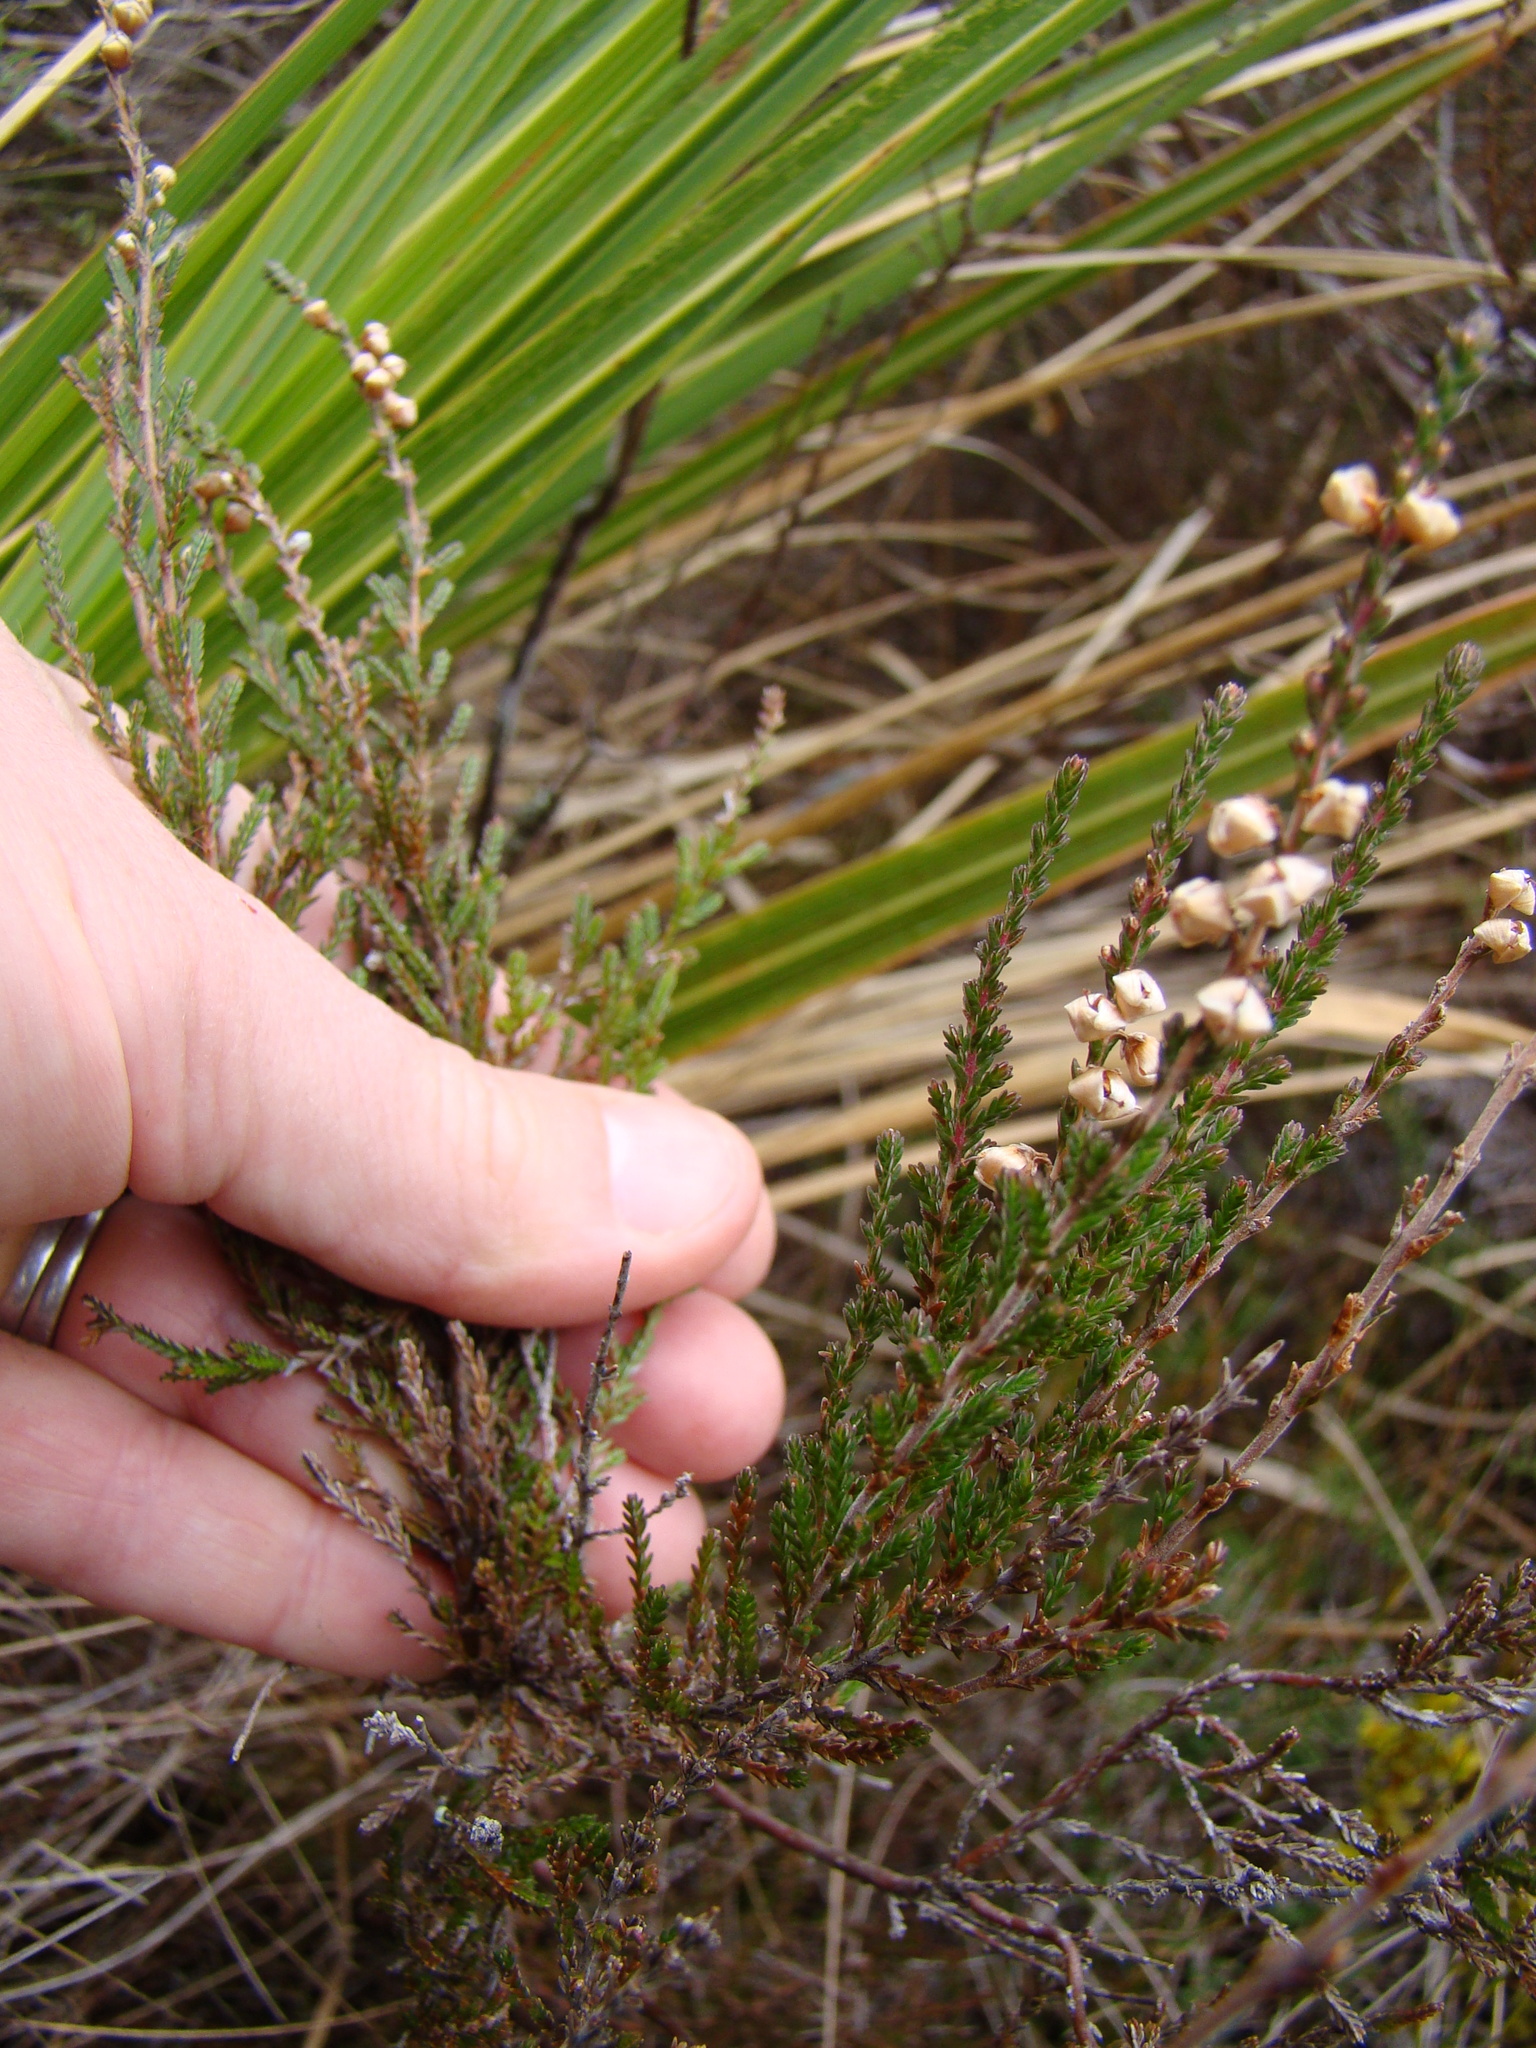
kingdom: Plantae
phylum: Tracheophyta
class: Magnoliopsida
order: Ericales
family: Ericaceae
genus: Calluna
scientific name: Calluna vulgaris
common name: Heather
